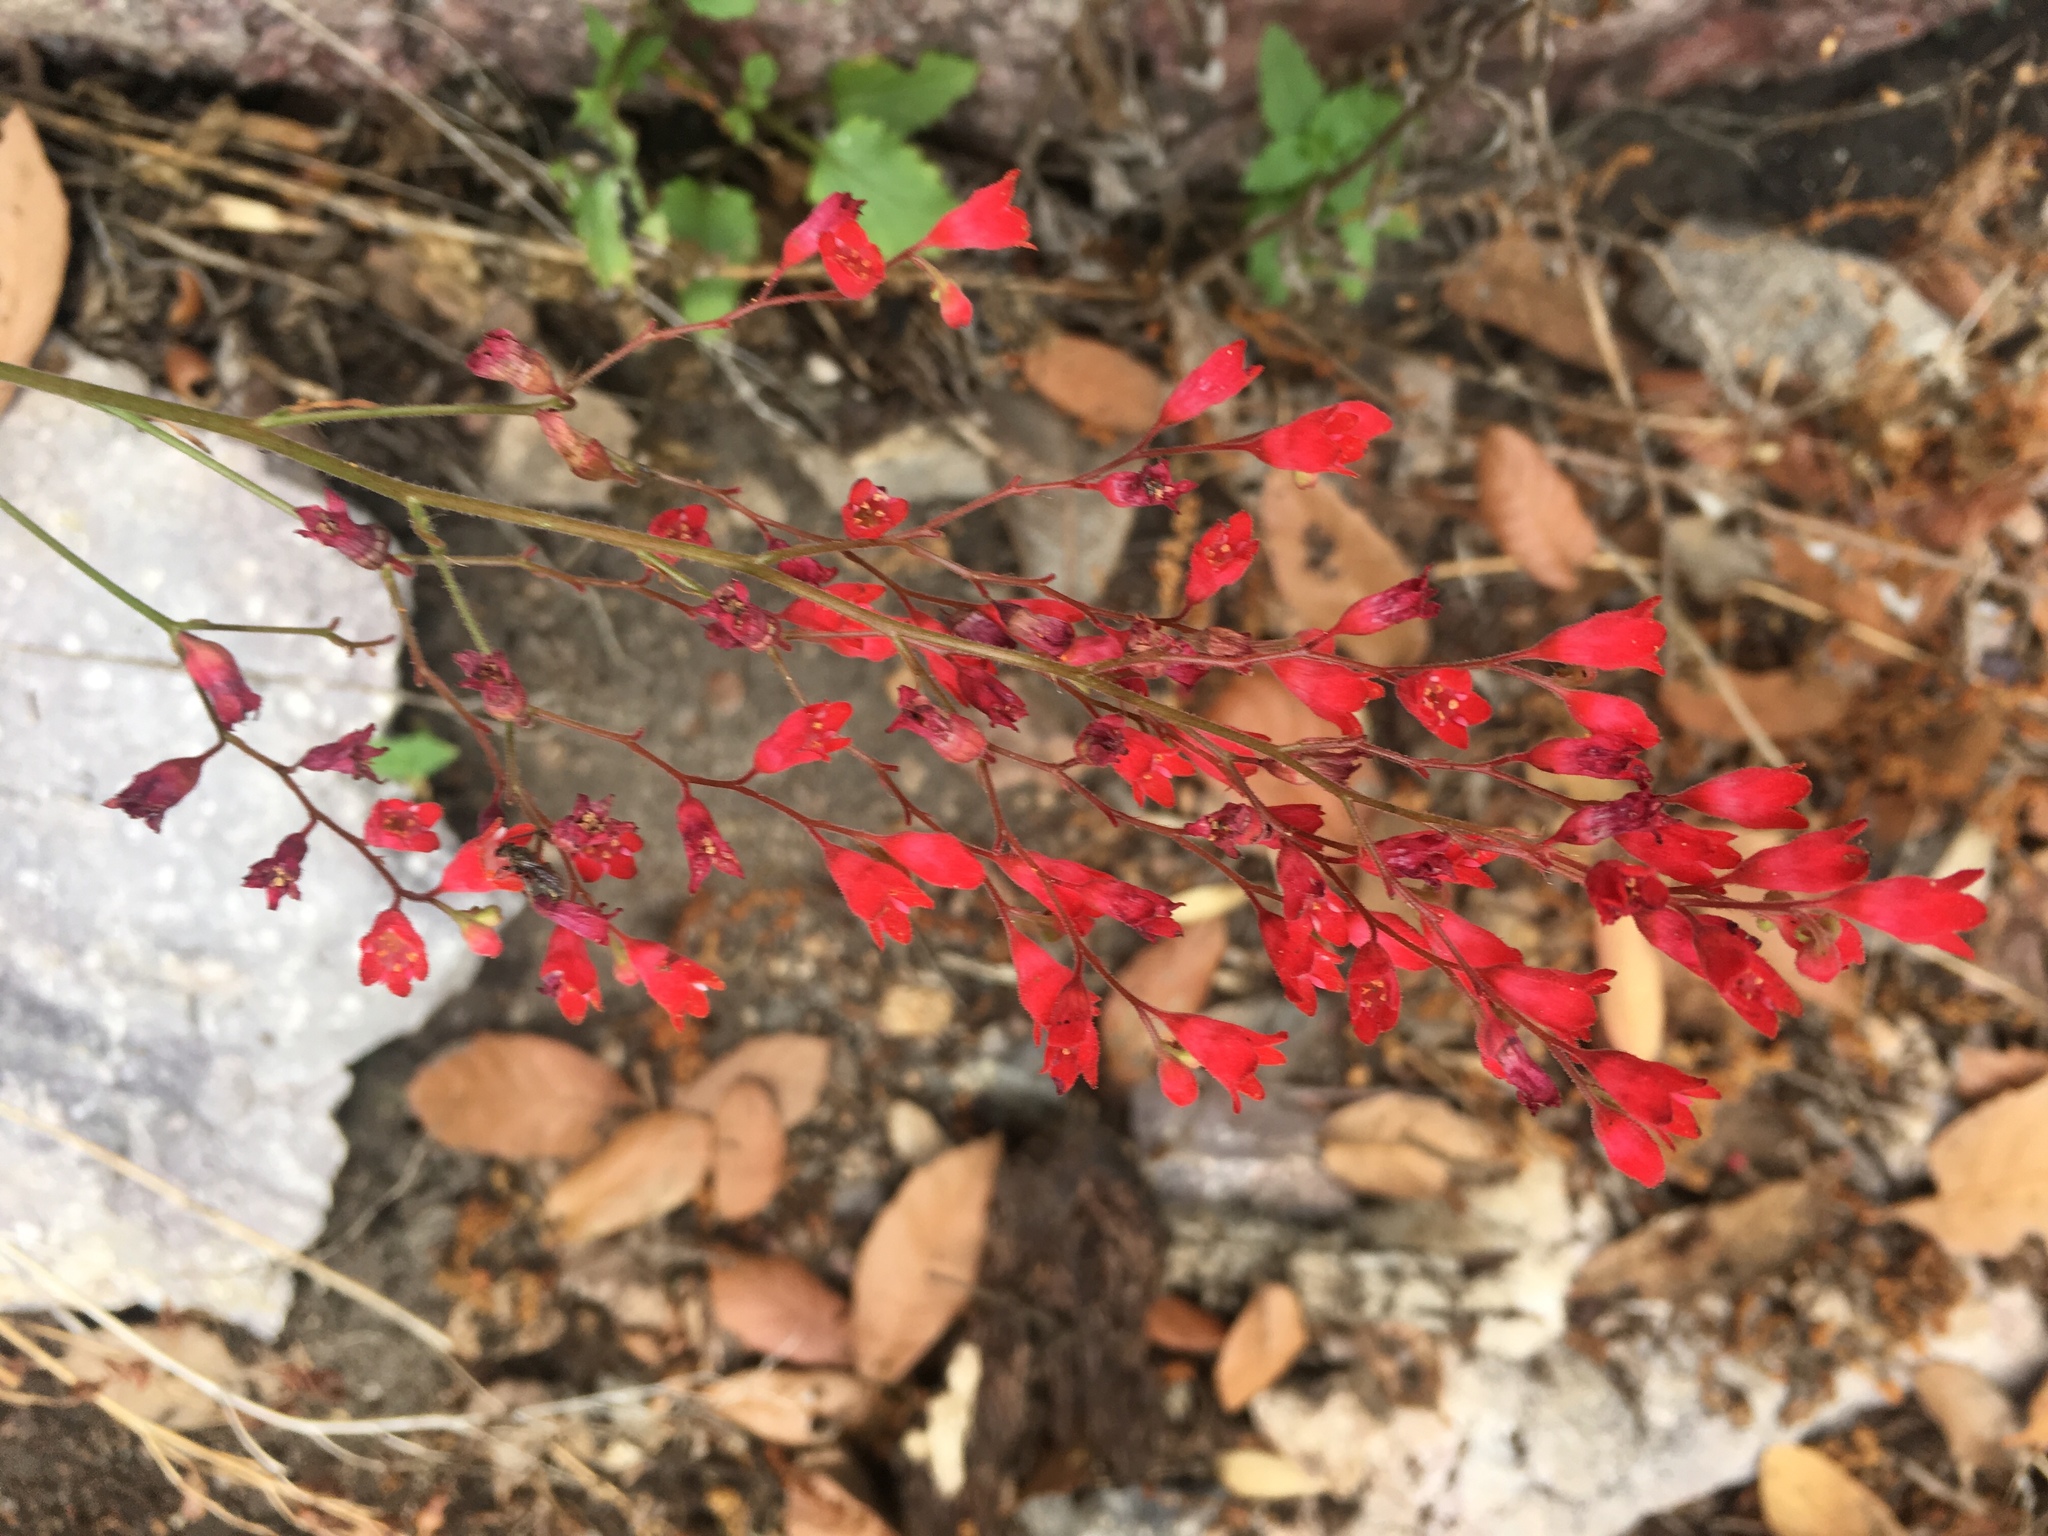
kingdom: Plantae
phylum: Tracheophyta
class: Magnoliopsida
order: Saxifragales
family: Saxifragaceae
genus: Heuchera
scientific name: Heuchera sanguinea
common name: Coralbells
